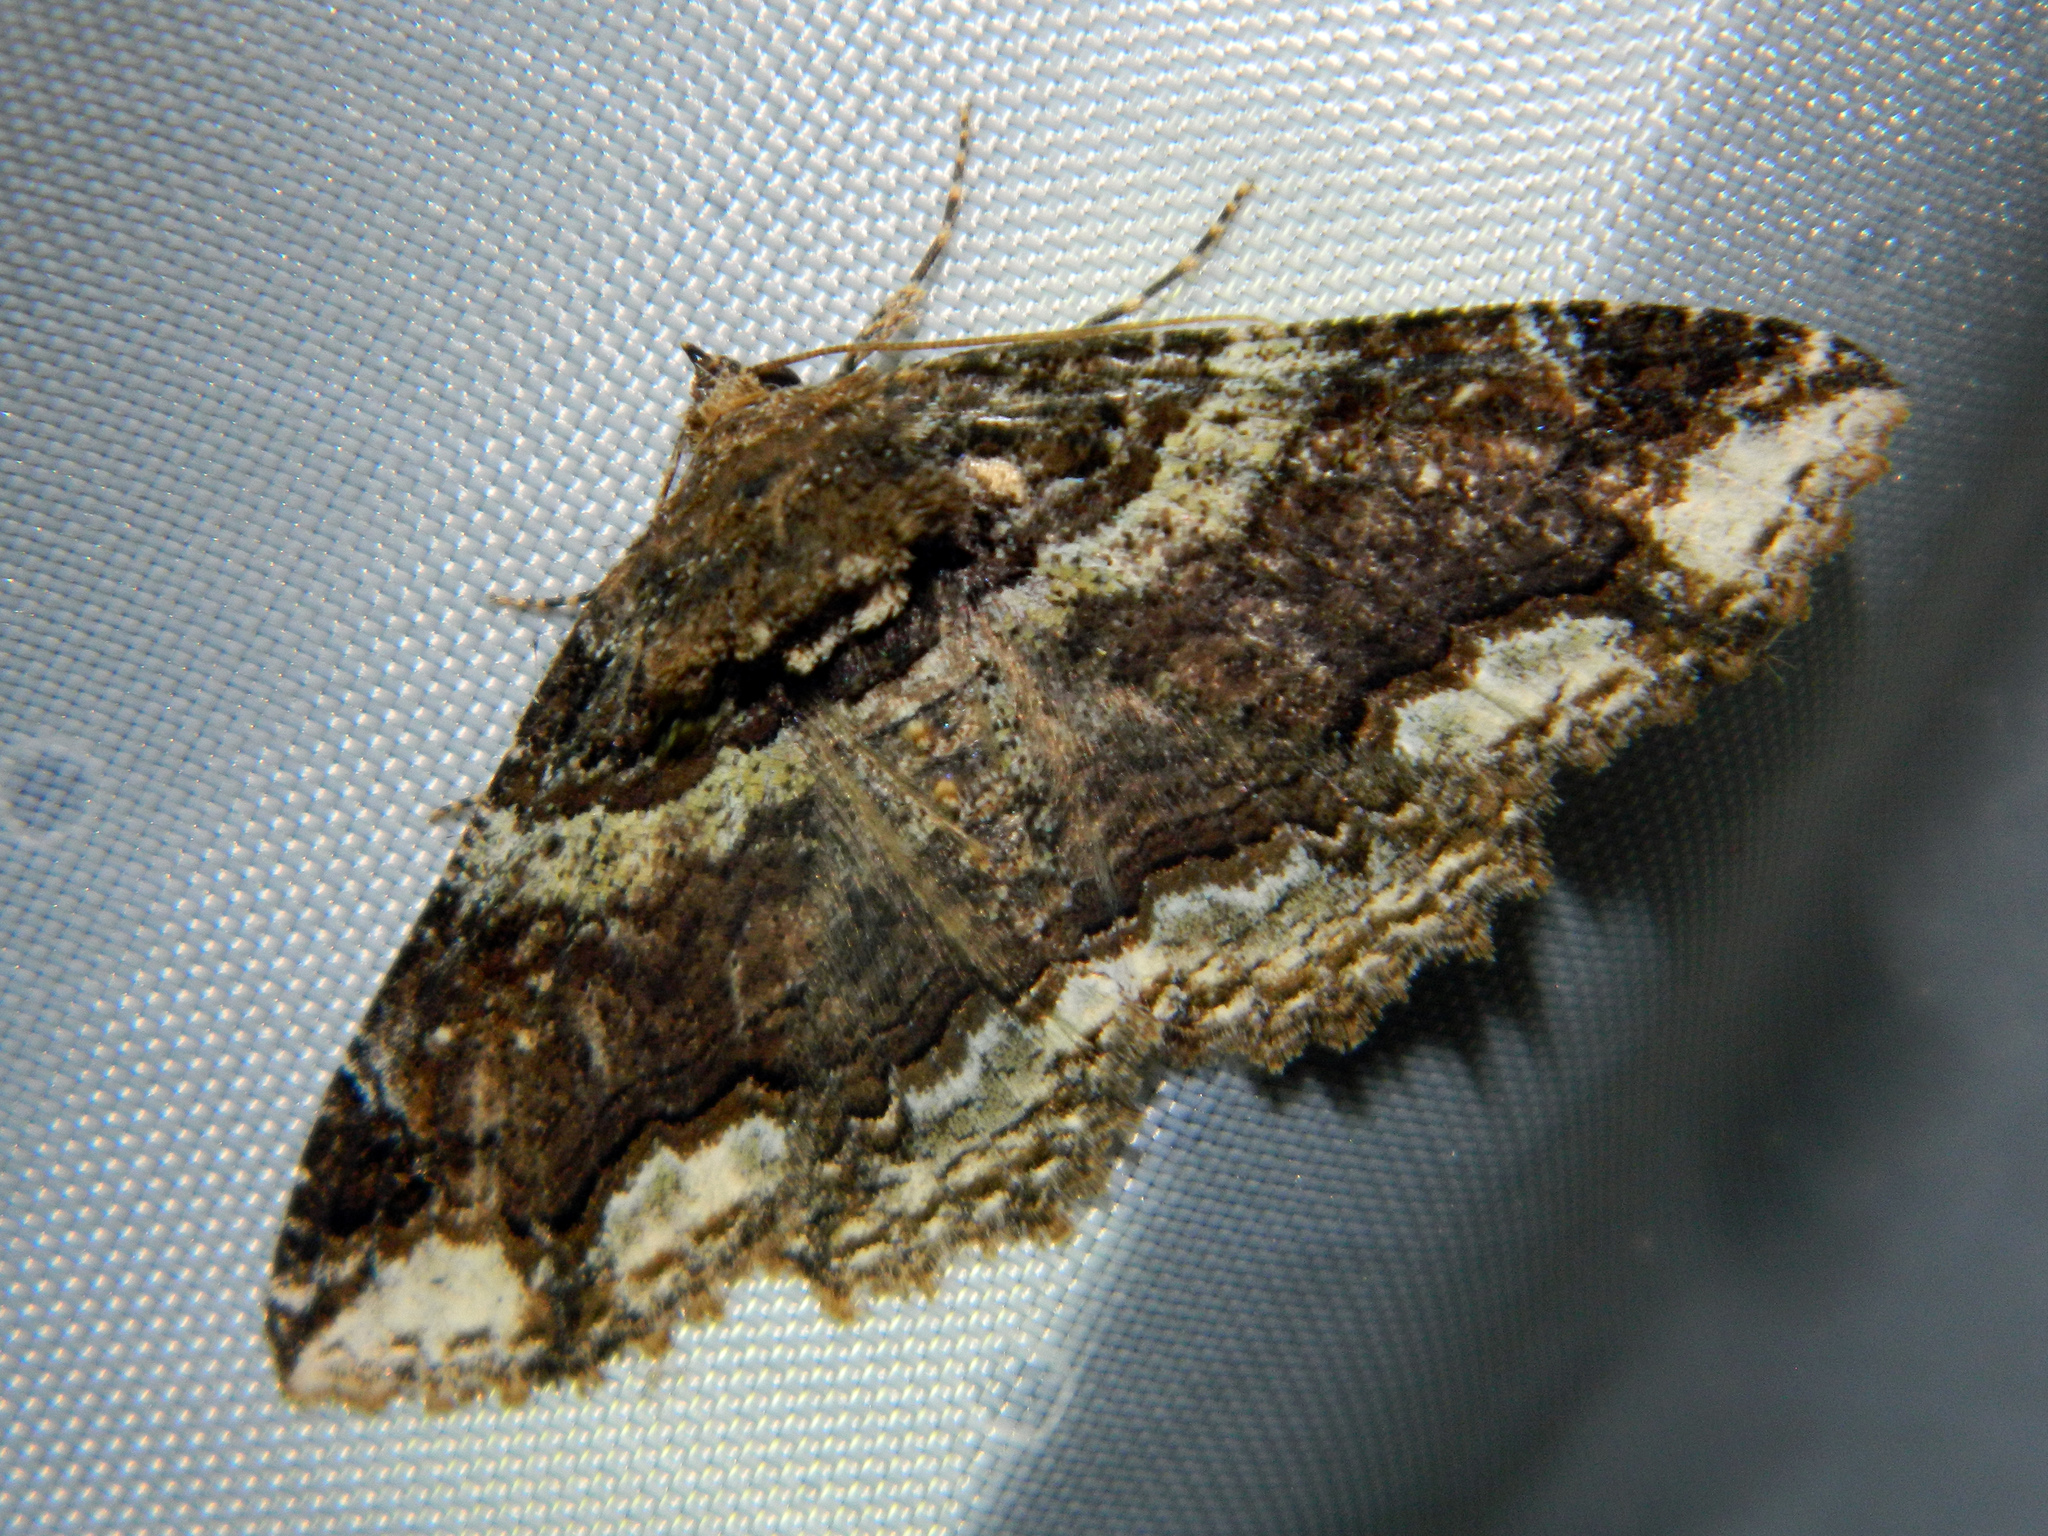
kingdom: Animalia
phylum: Arthropoda
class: Insecta
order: Lepidoptera
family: Erebidae
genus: Zale
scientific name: Zale minerea
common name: Colorful zale moth
